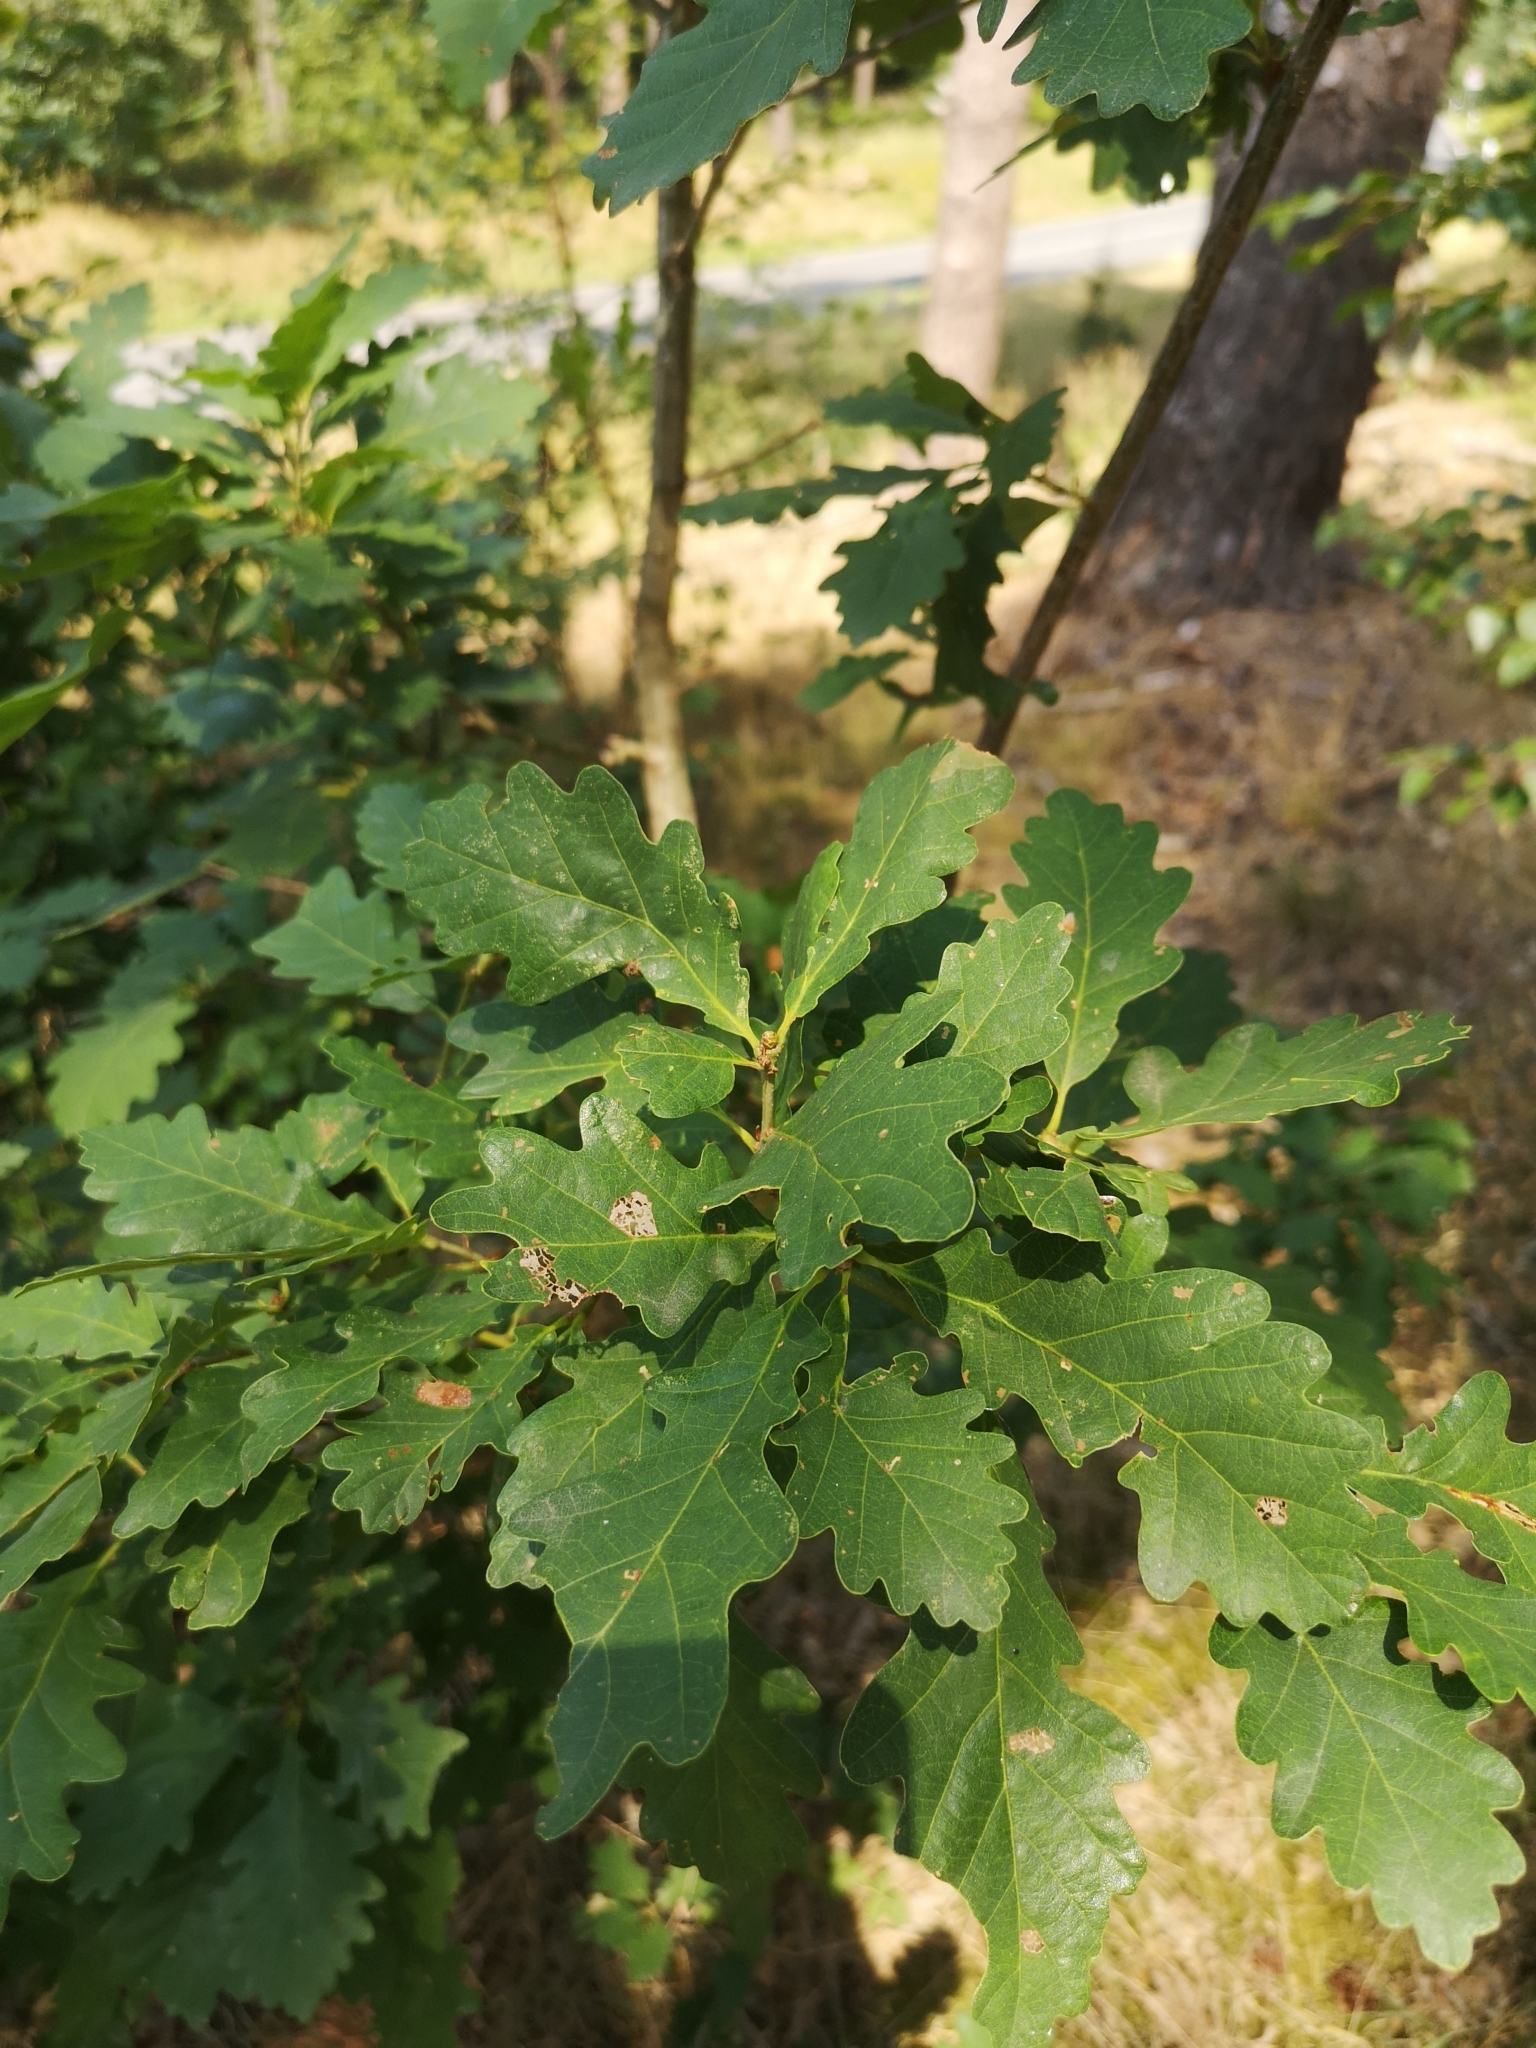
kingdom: Plantae
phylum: Tracheophyta
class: Magnoliopsida
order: Fagales
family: Fagaceae
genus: Quercus
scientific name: Quercus petraea
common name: Sessile oak
